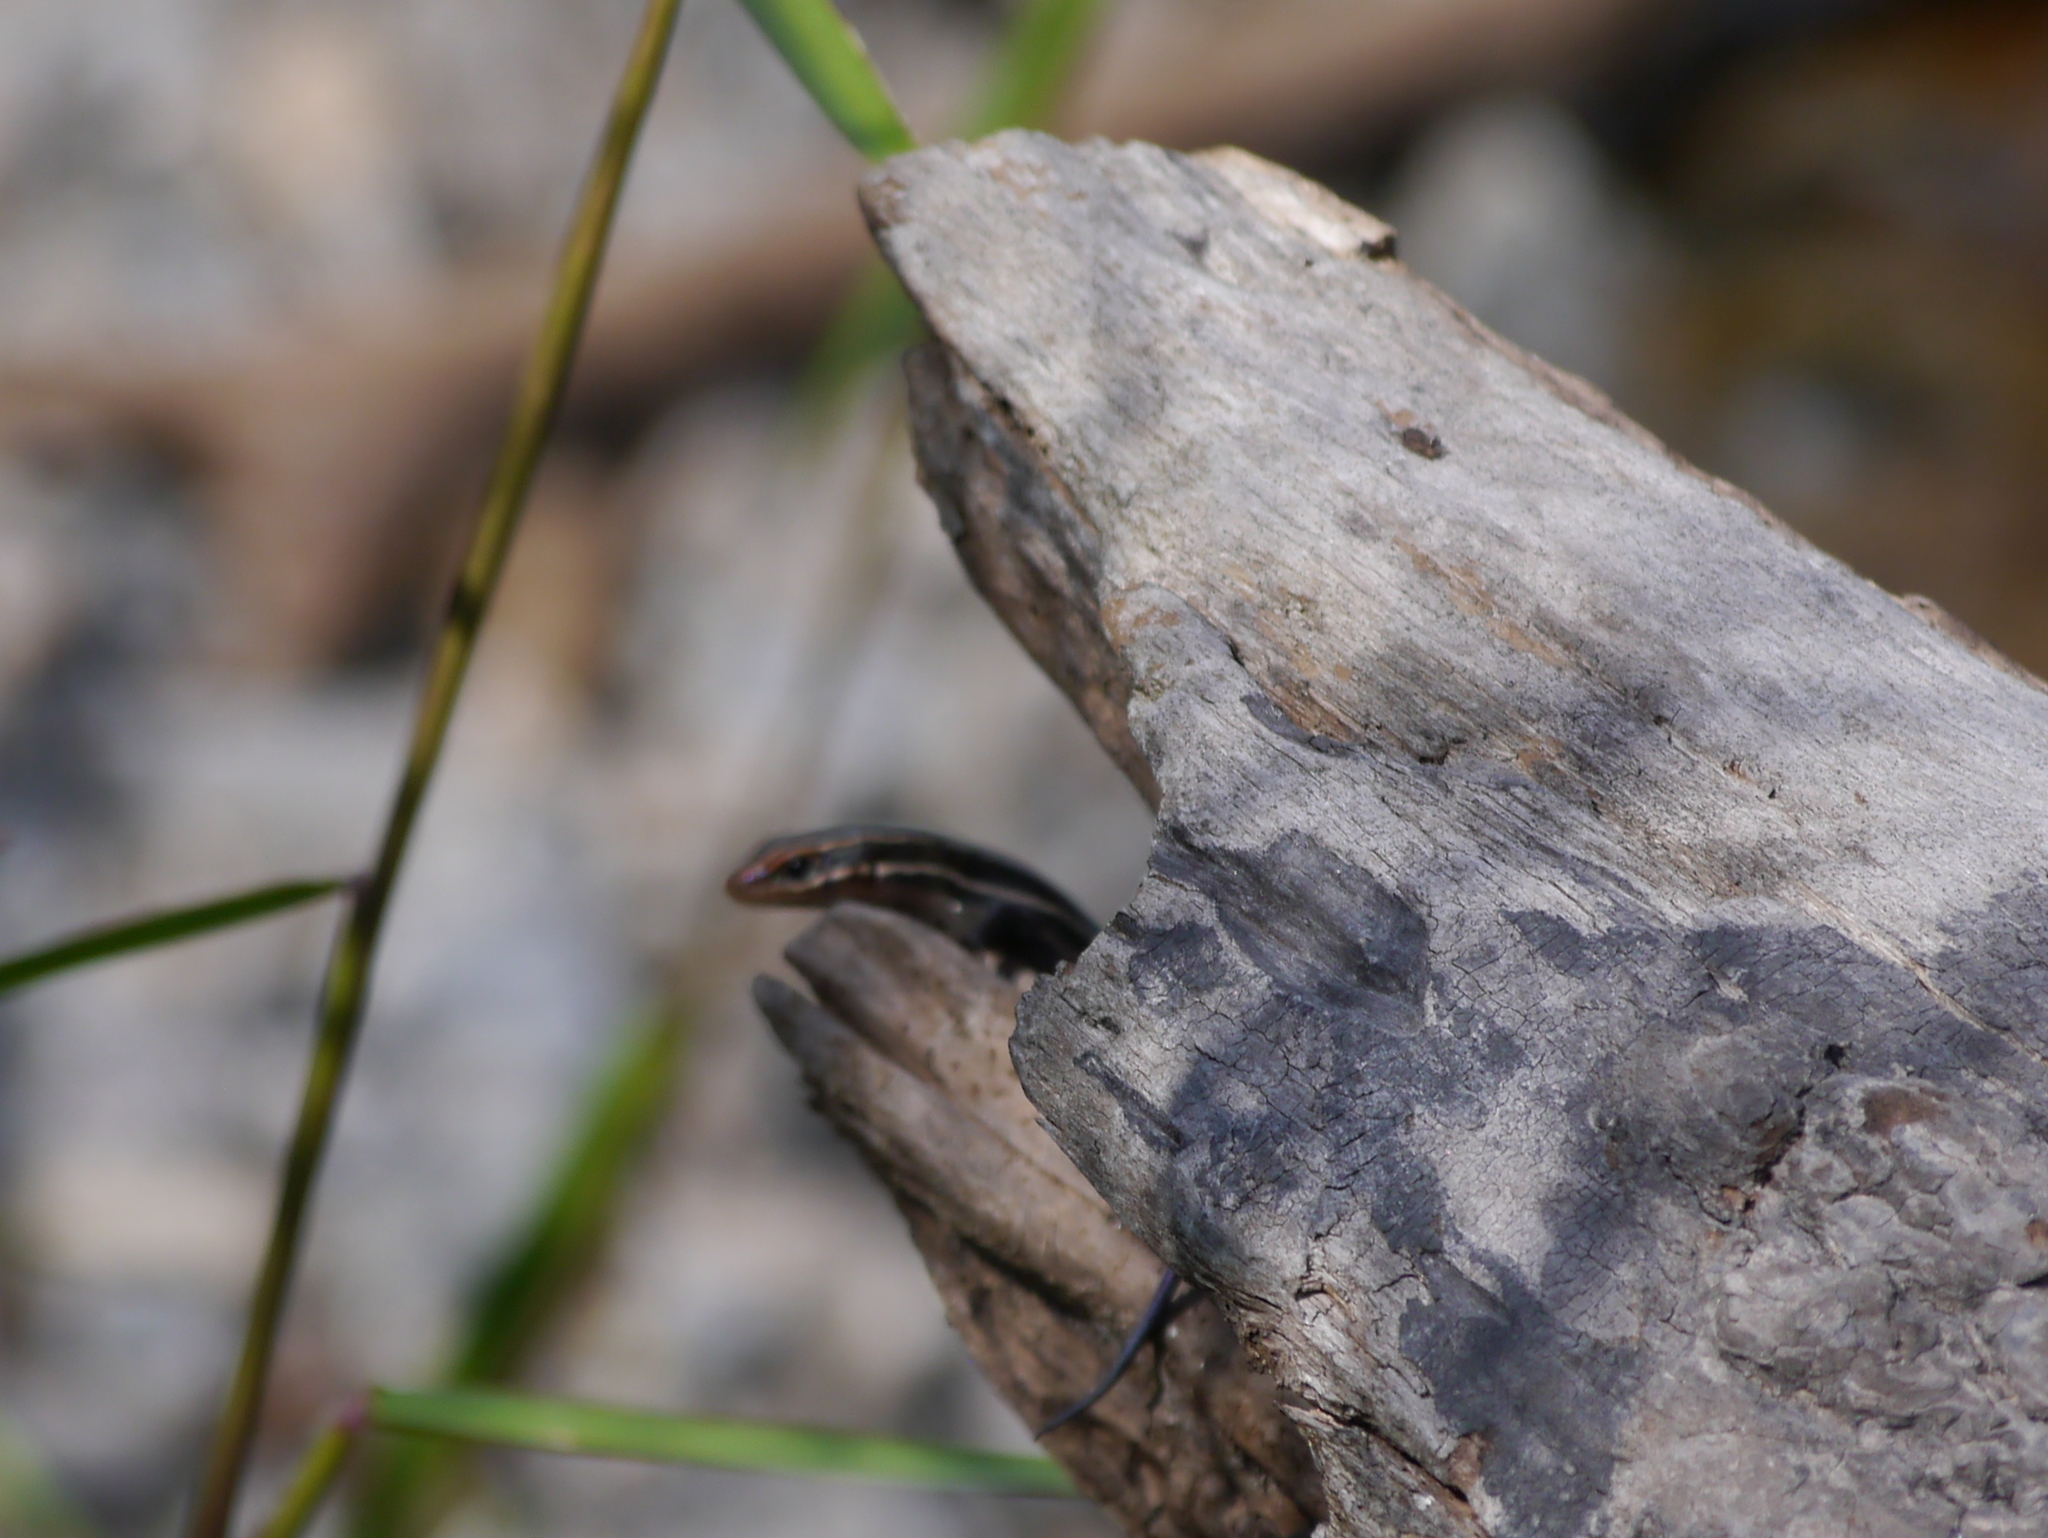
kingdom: Animalia
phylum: Chordata
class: Squamata
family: Scincidae
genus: Plestiodon
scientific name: Plestiodon
